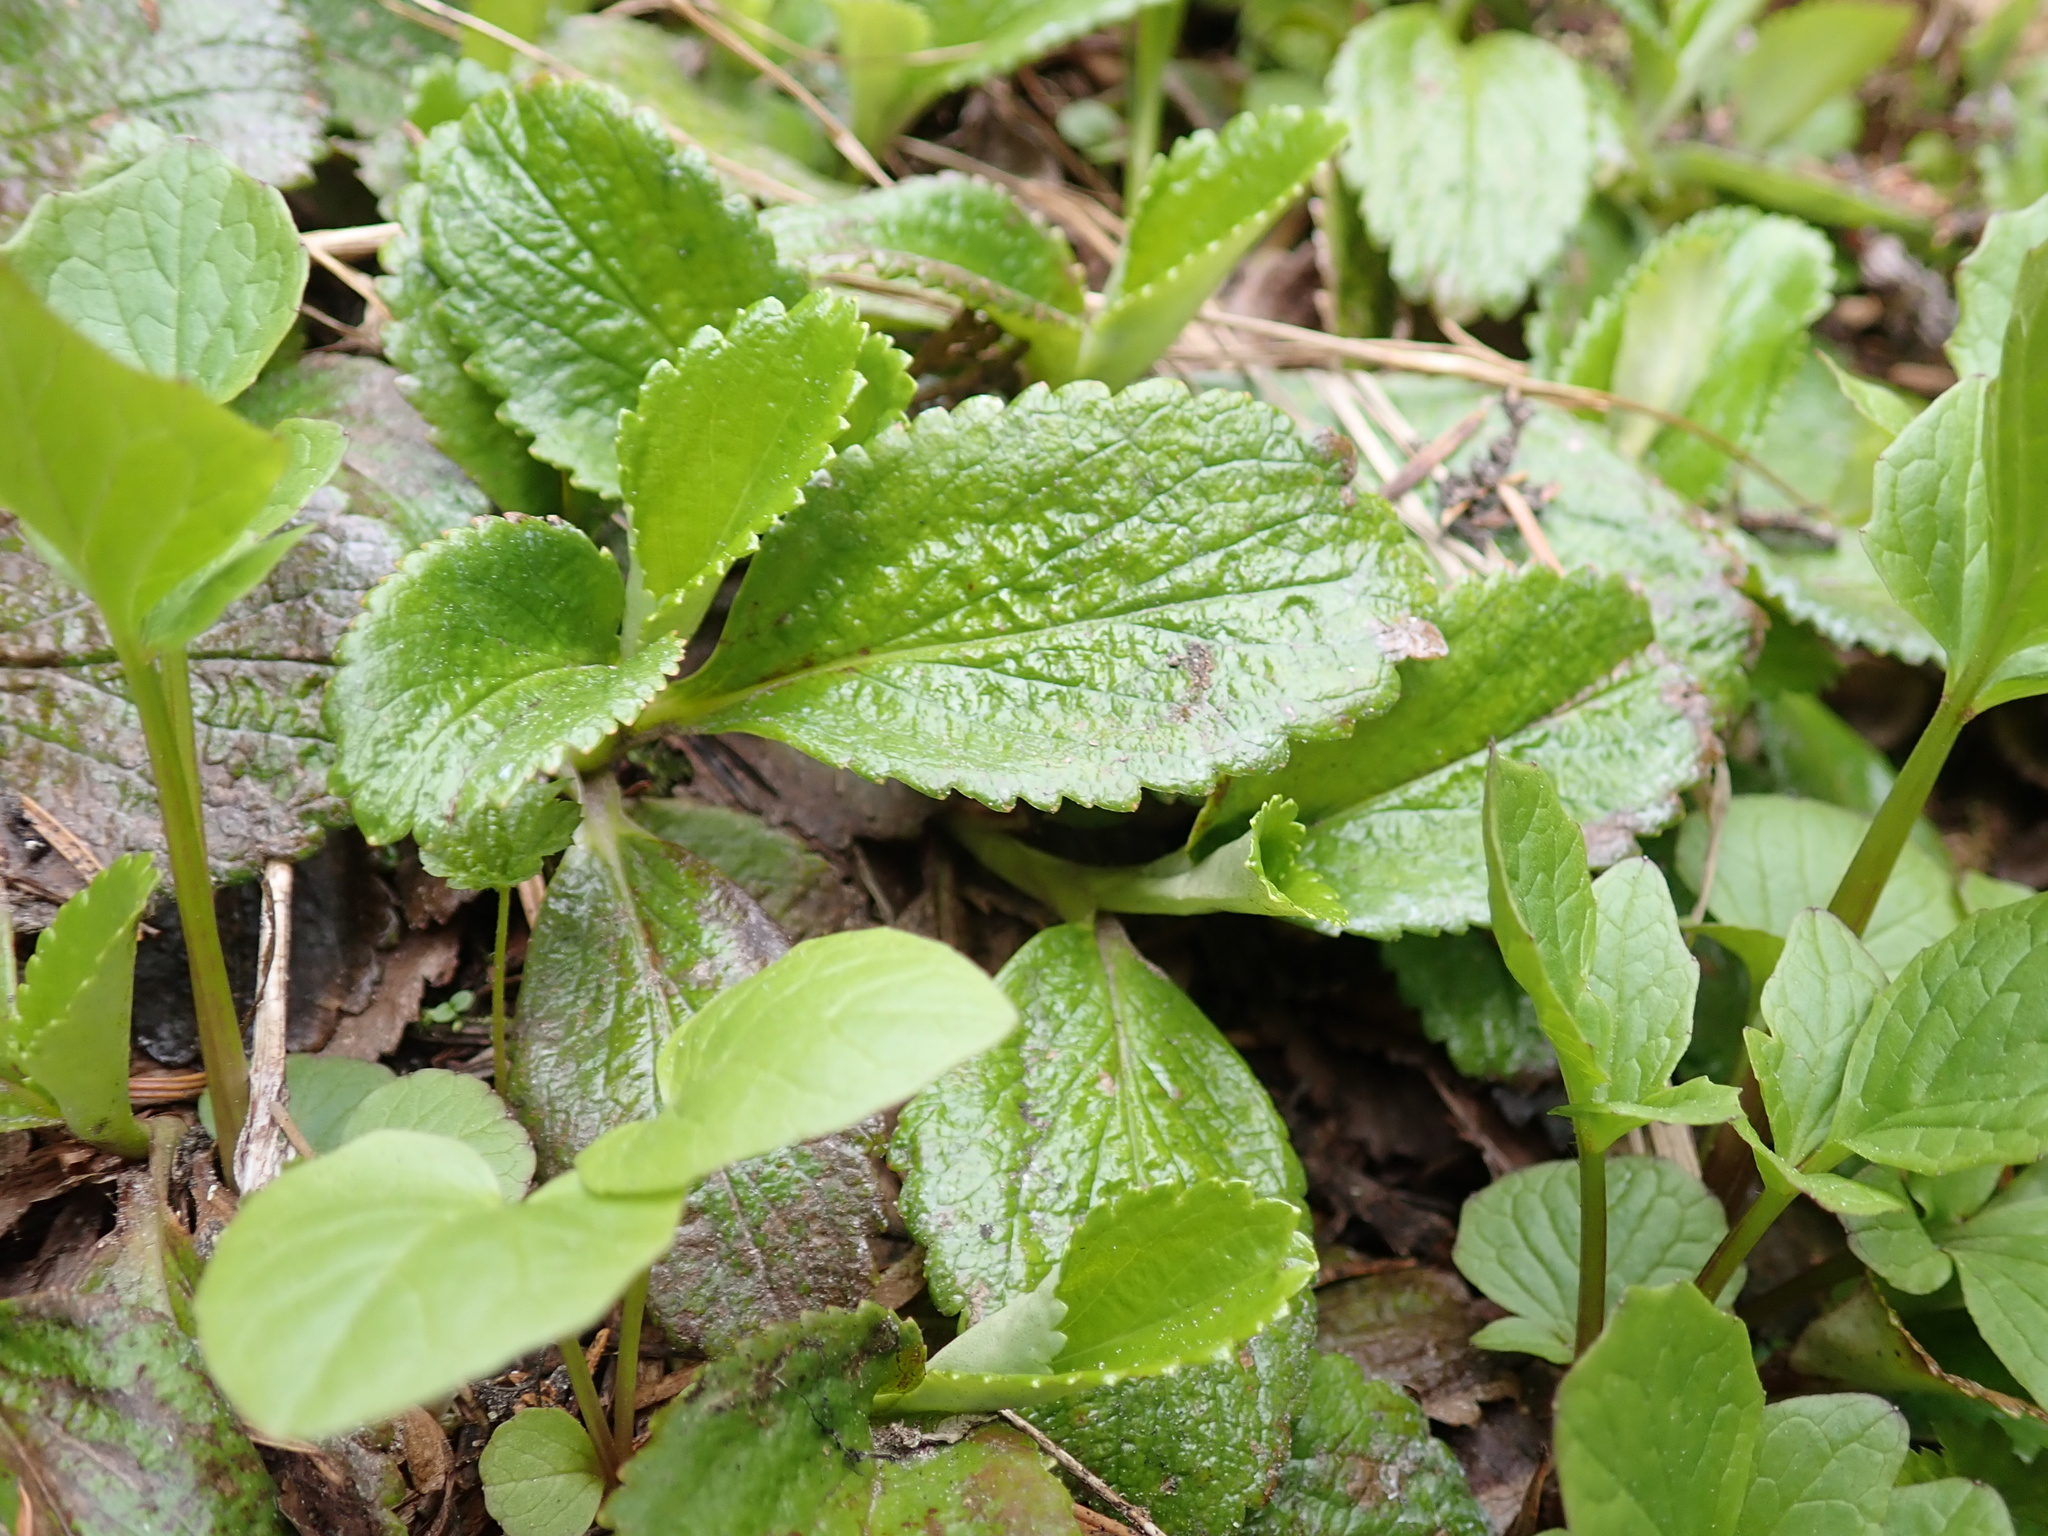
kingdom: Plantae
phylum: Tracheophyta
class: Magnoliopsida
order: Saxifragales
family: Saxifragaceae
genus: Leptarrhena
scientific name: Leptarrhena pyrolifolia
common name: Leatherleaf-saxifrage
